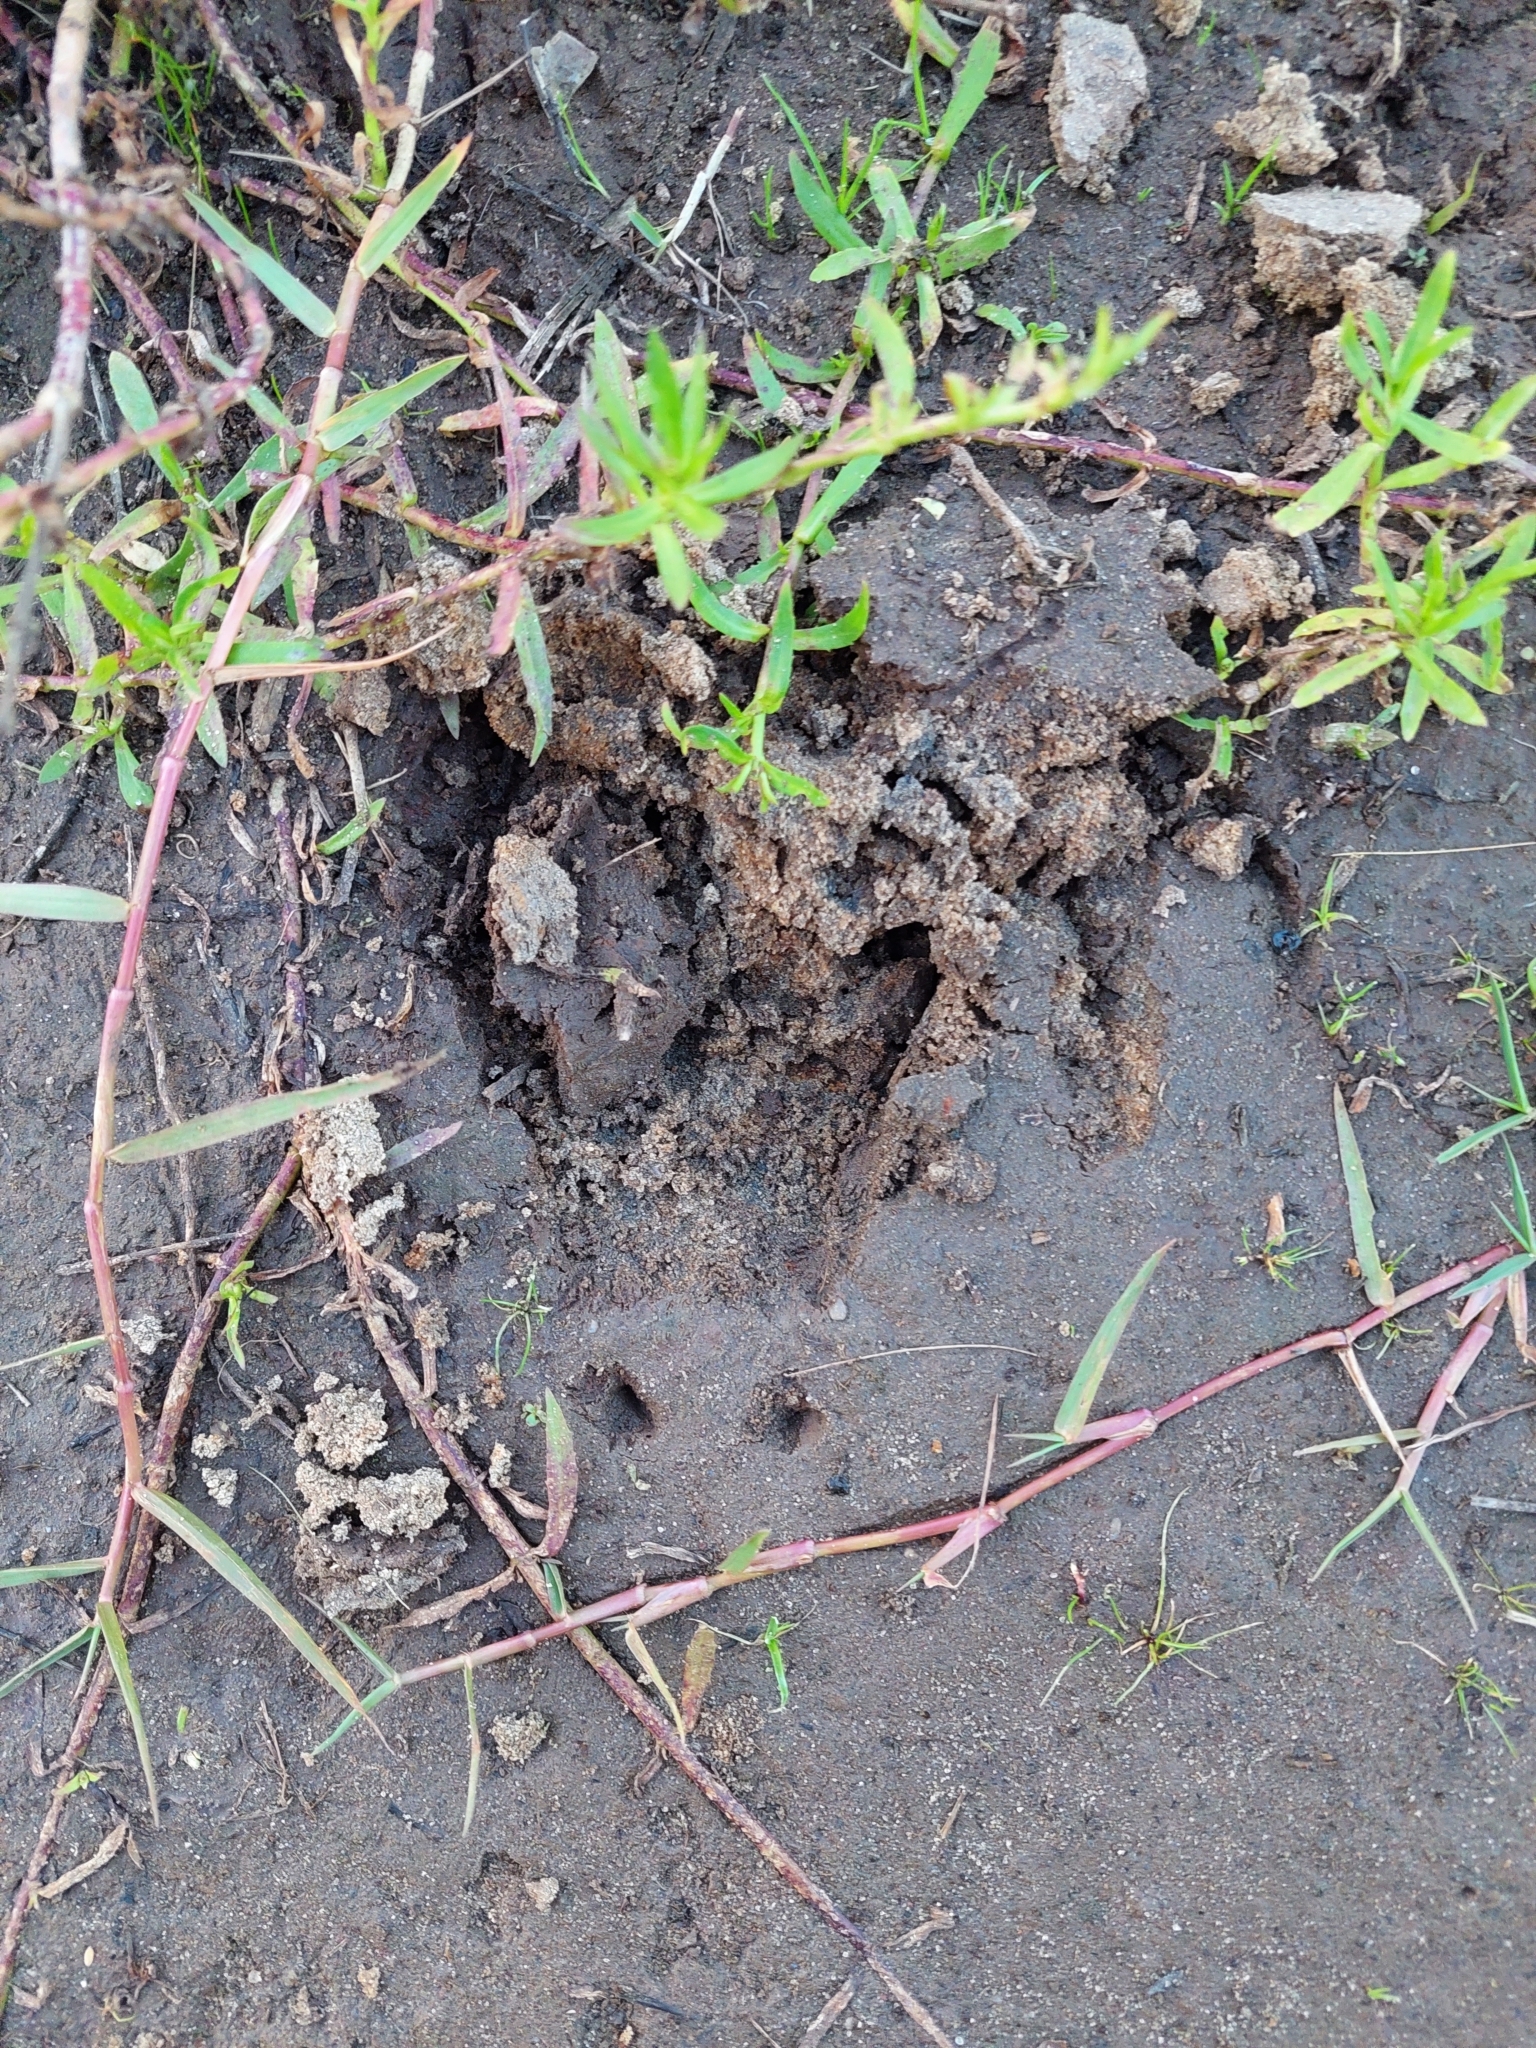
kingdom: Animalia
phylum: Chordata
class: Mammalia
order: Artiodactyla
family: Suidae
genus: Sus
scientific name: Sus scrofa
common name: Wild boar
